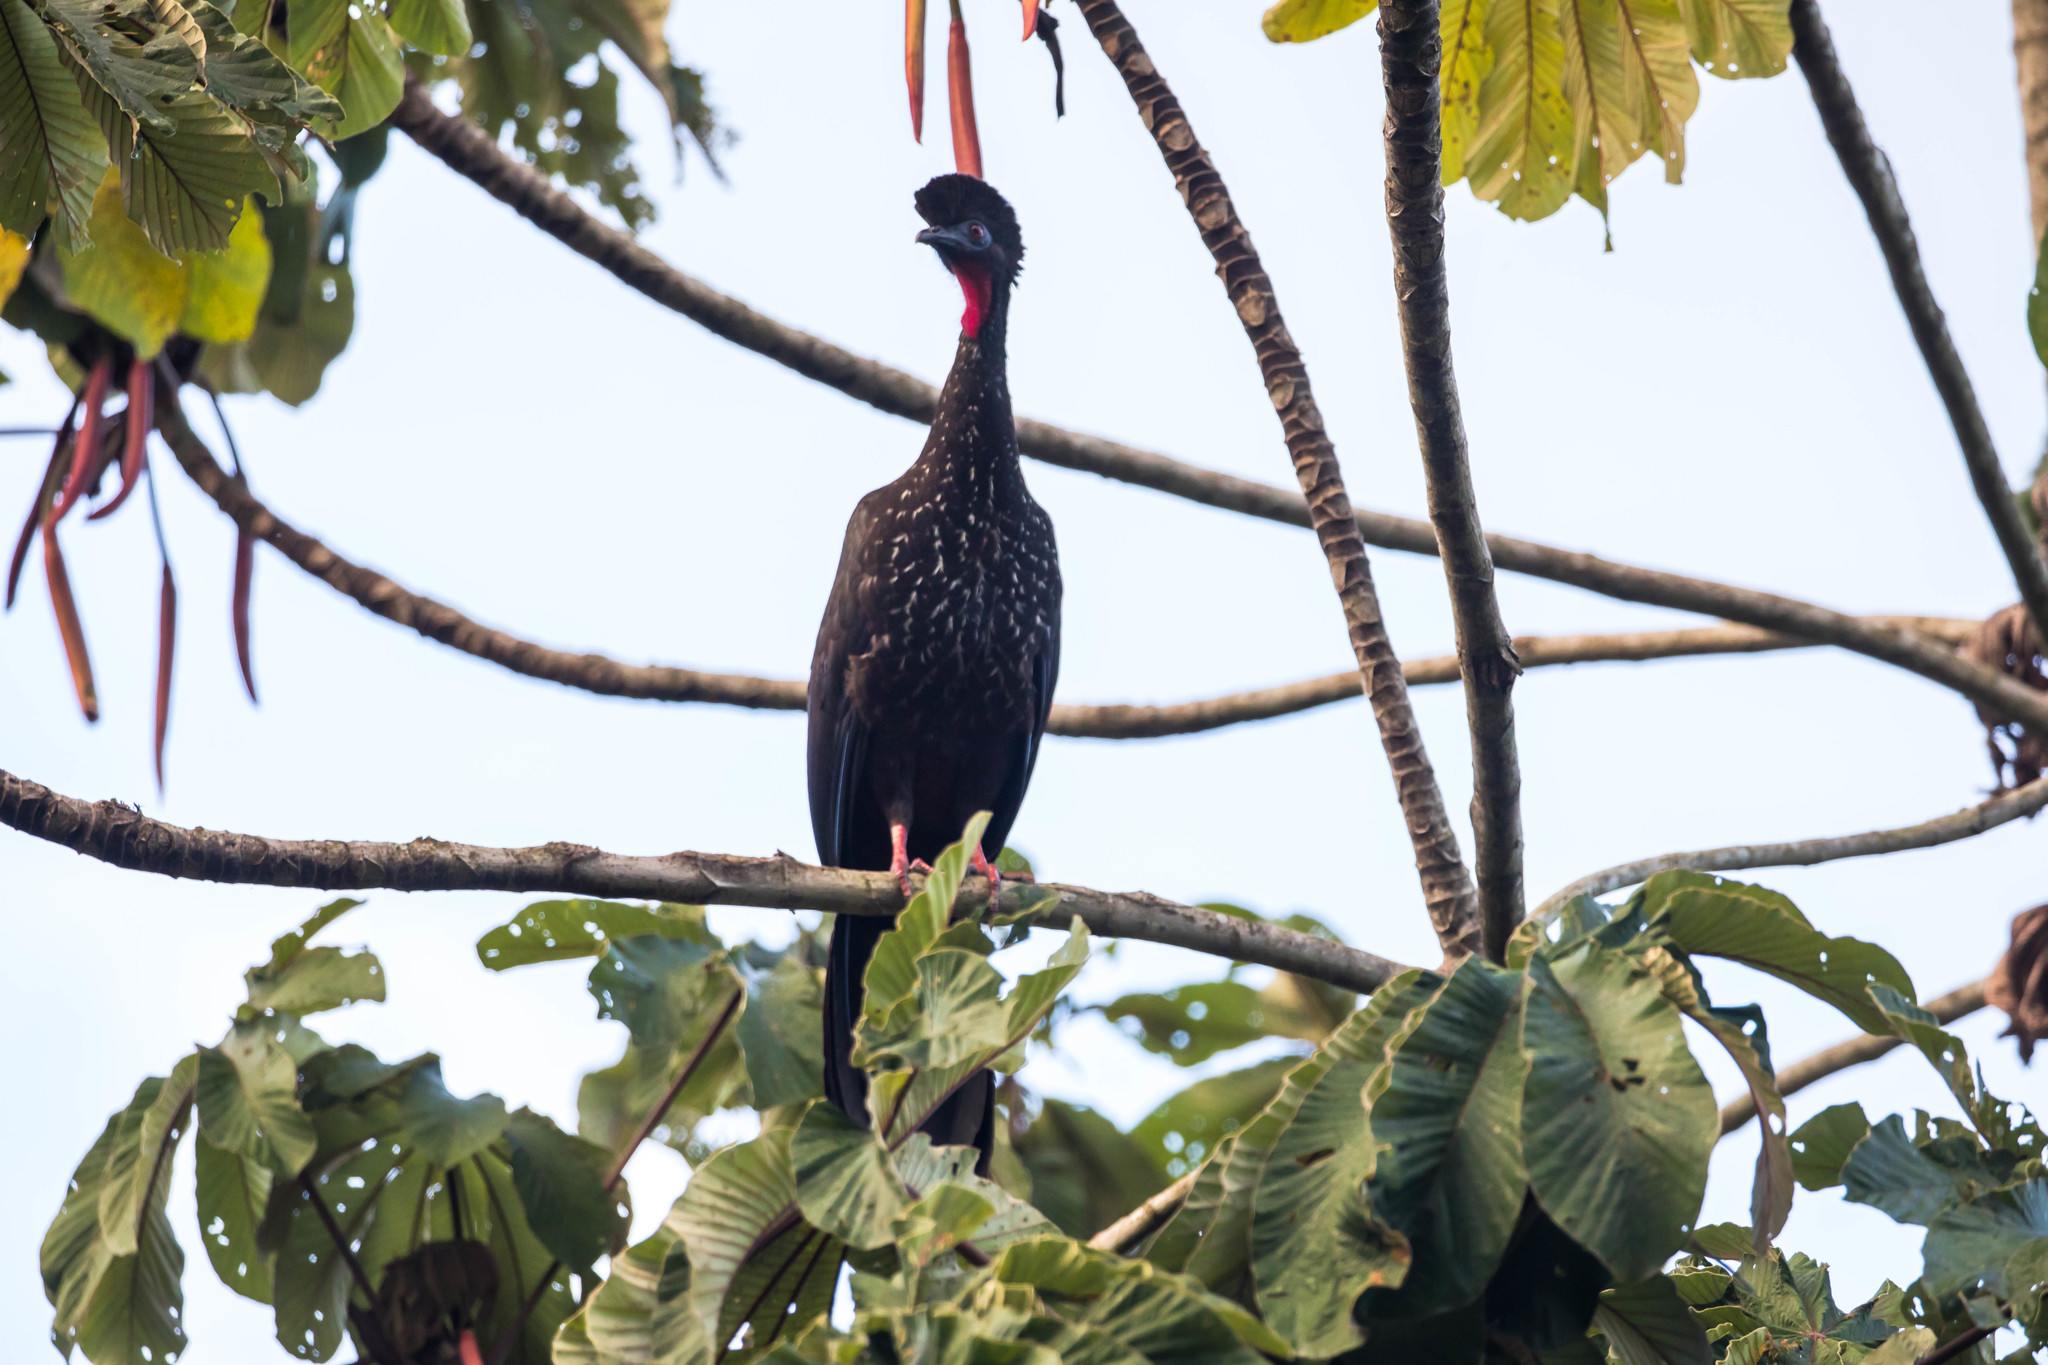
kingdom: Animalia
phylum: Chordata
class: Aves
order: Galliformes
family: Cracidae
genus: Penelope
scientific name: Penelope purpurascens
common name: Crested guan
